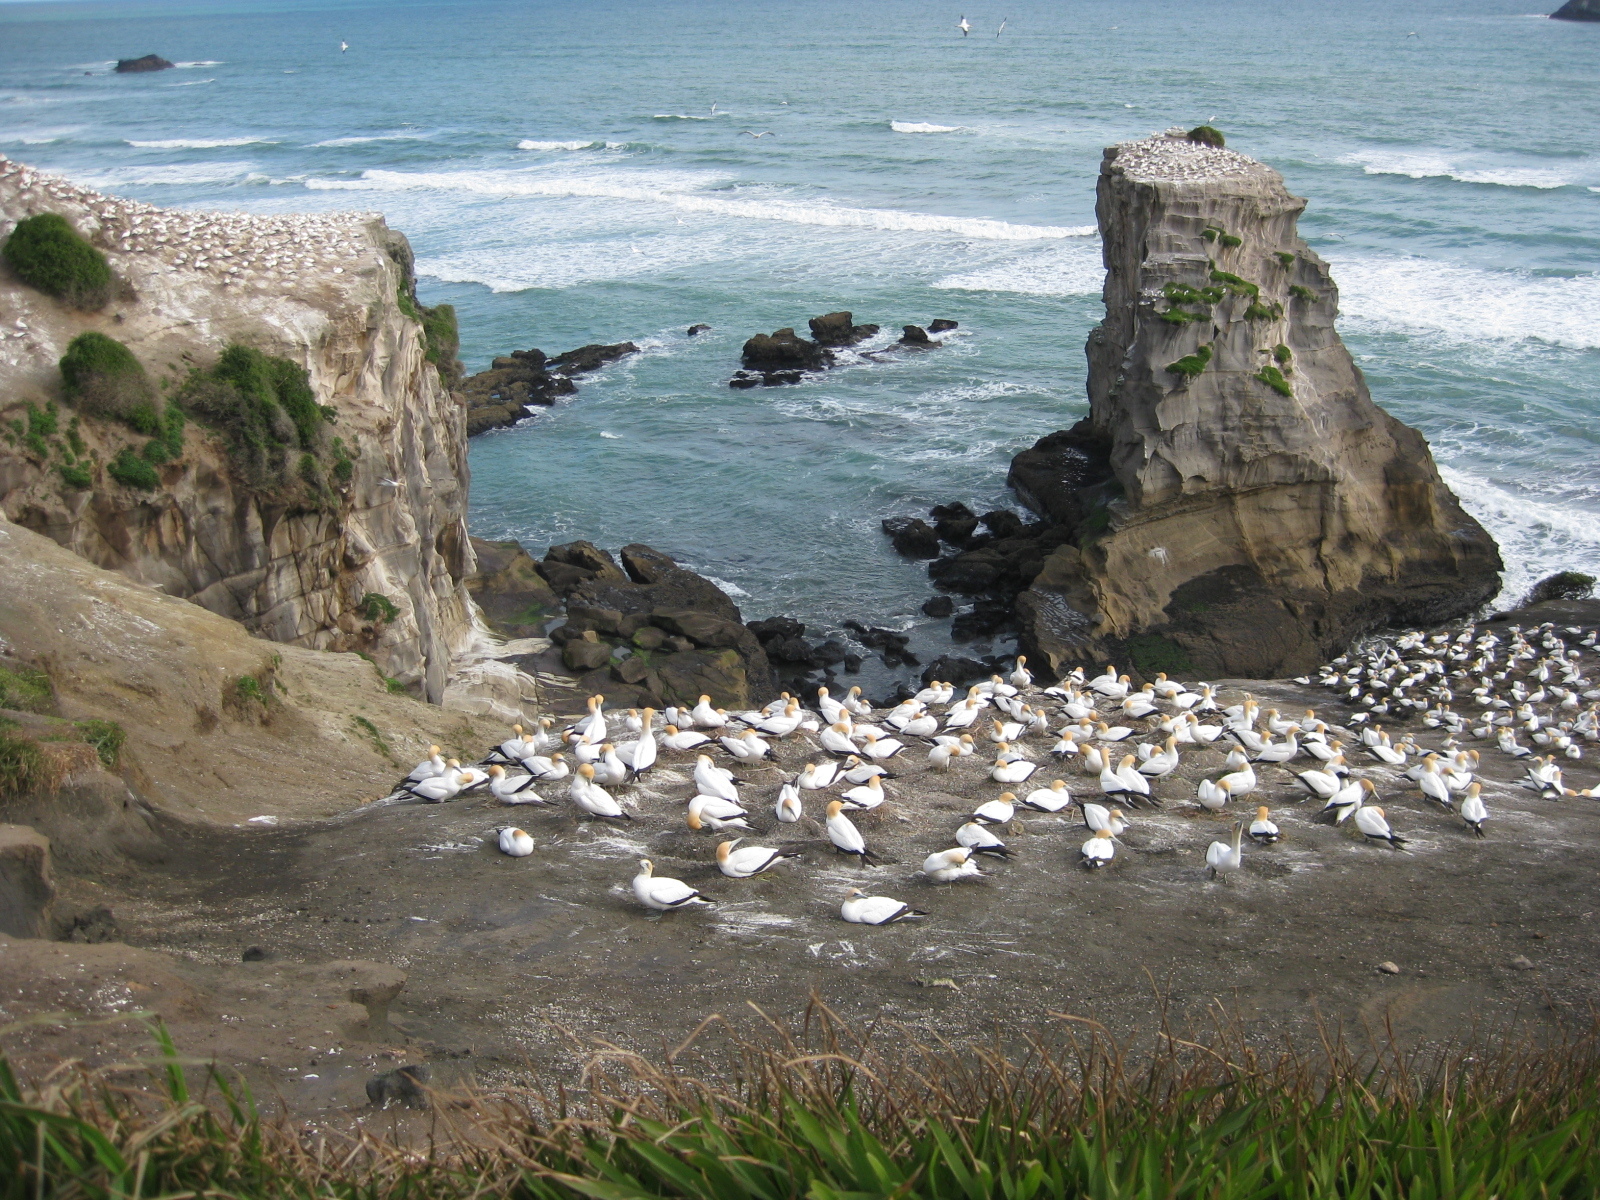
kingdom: Animalia
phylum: Chordata
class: Aves
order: Suliformes
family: Sulidae
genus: Morus
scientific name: Morus serrator
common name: Australasian gannet
